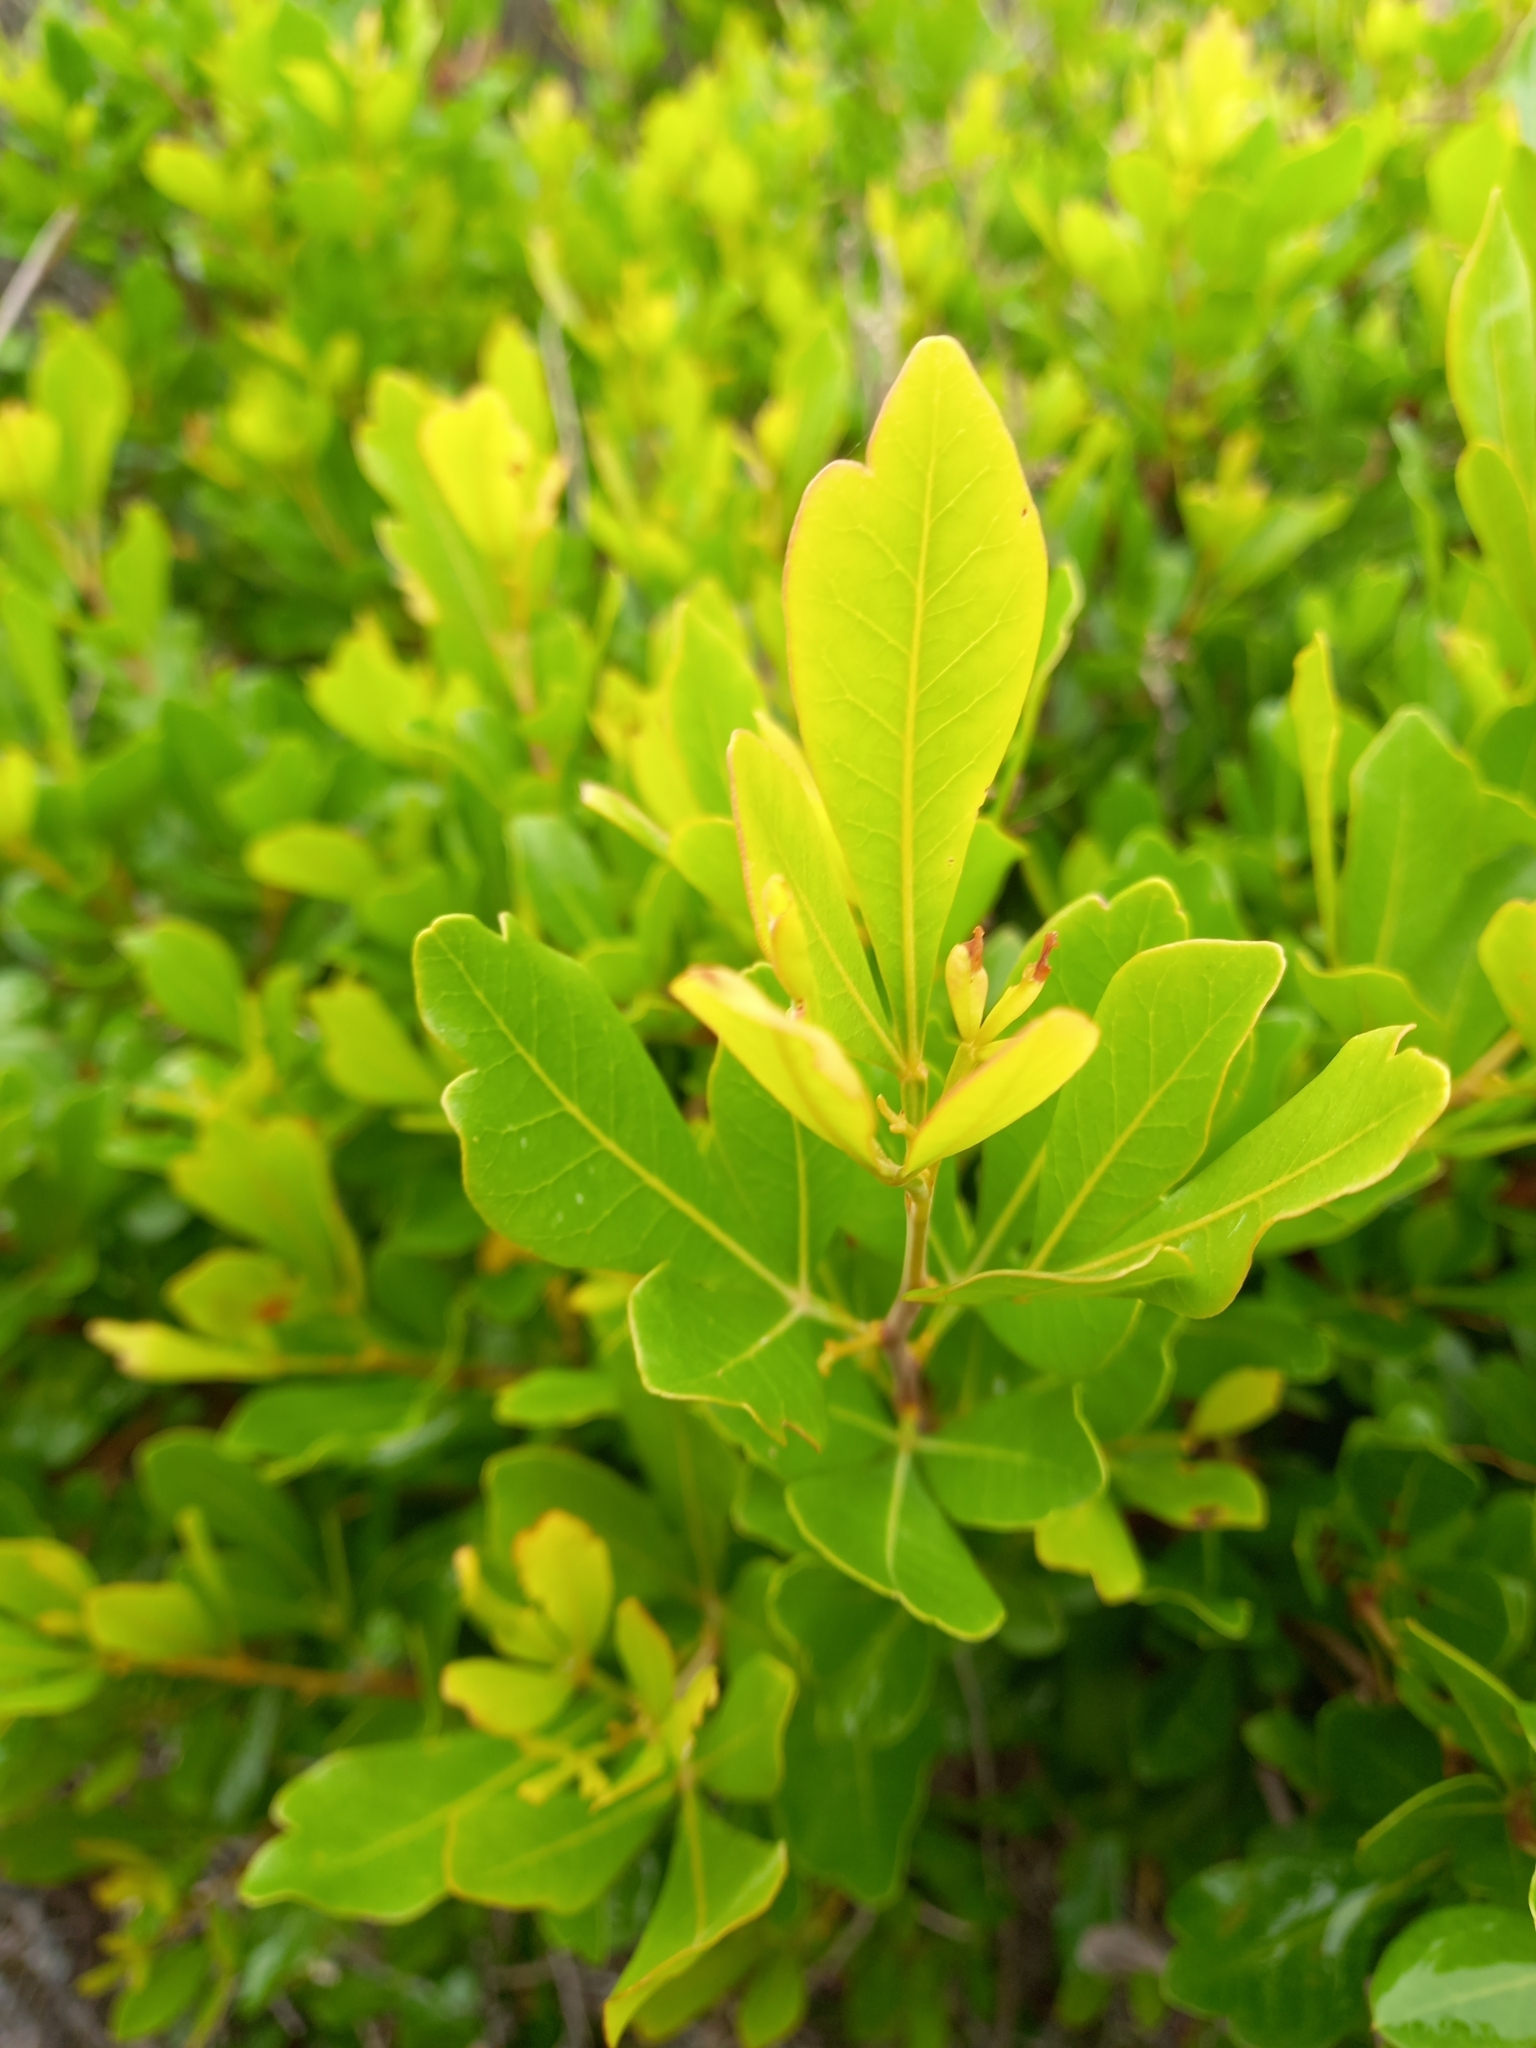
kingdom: Plantae
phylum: Tracheophyta
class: Magnoliopsida
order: Sapindales
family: Anacardiaceae
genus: Searsia
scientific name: Searsia lucida
